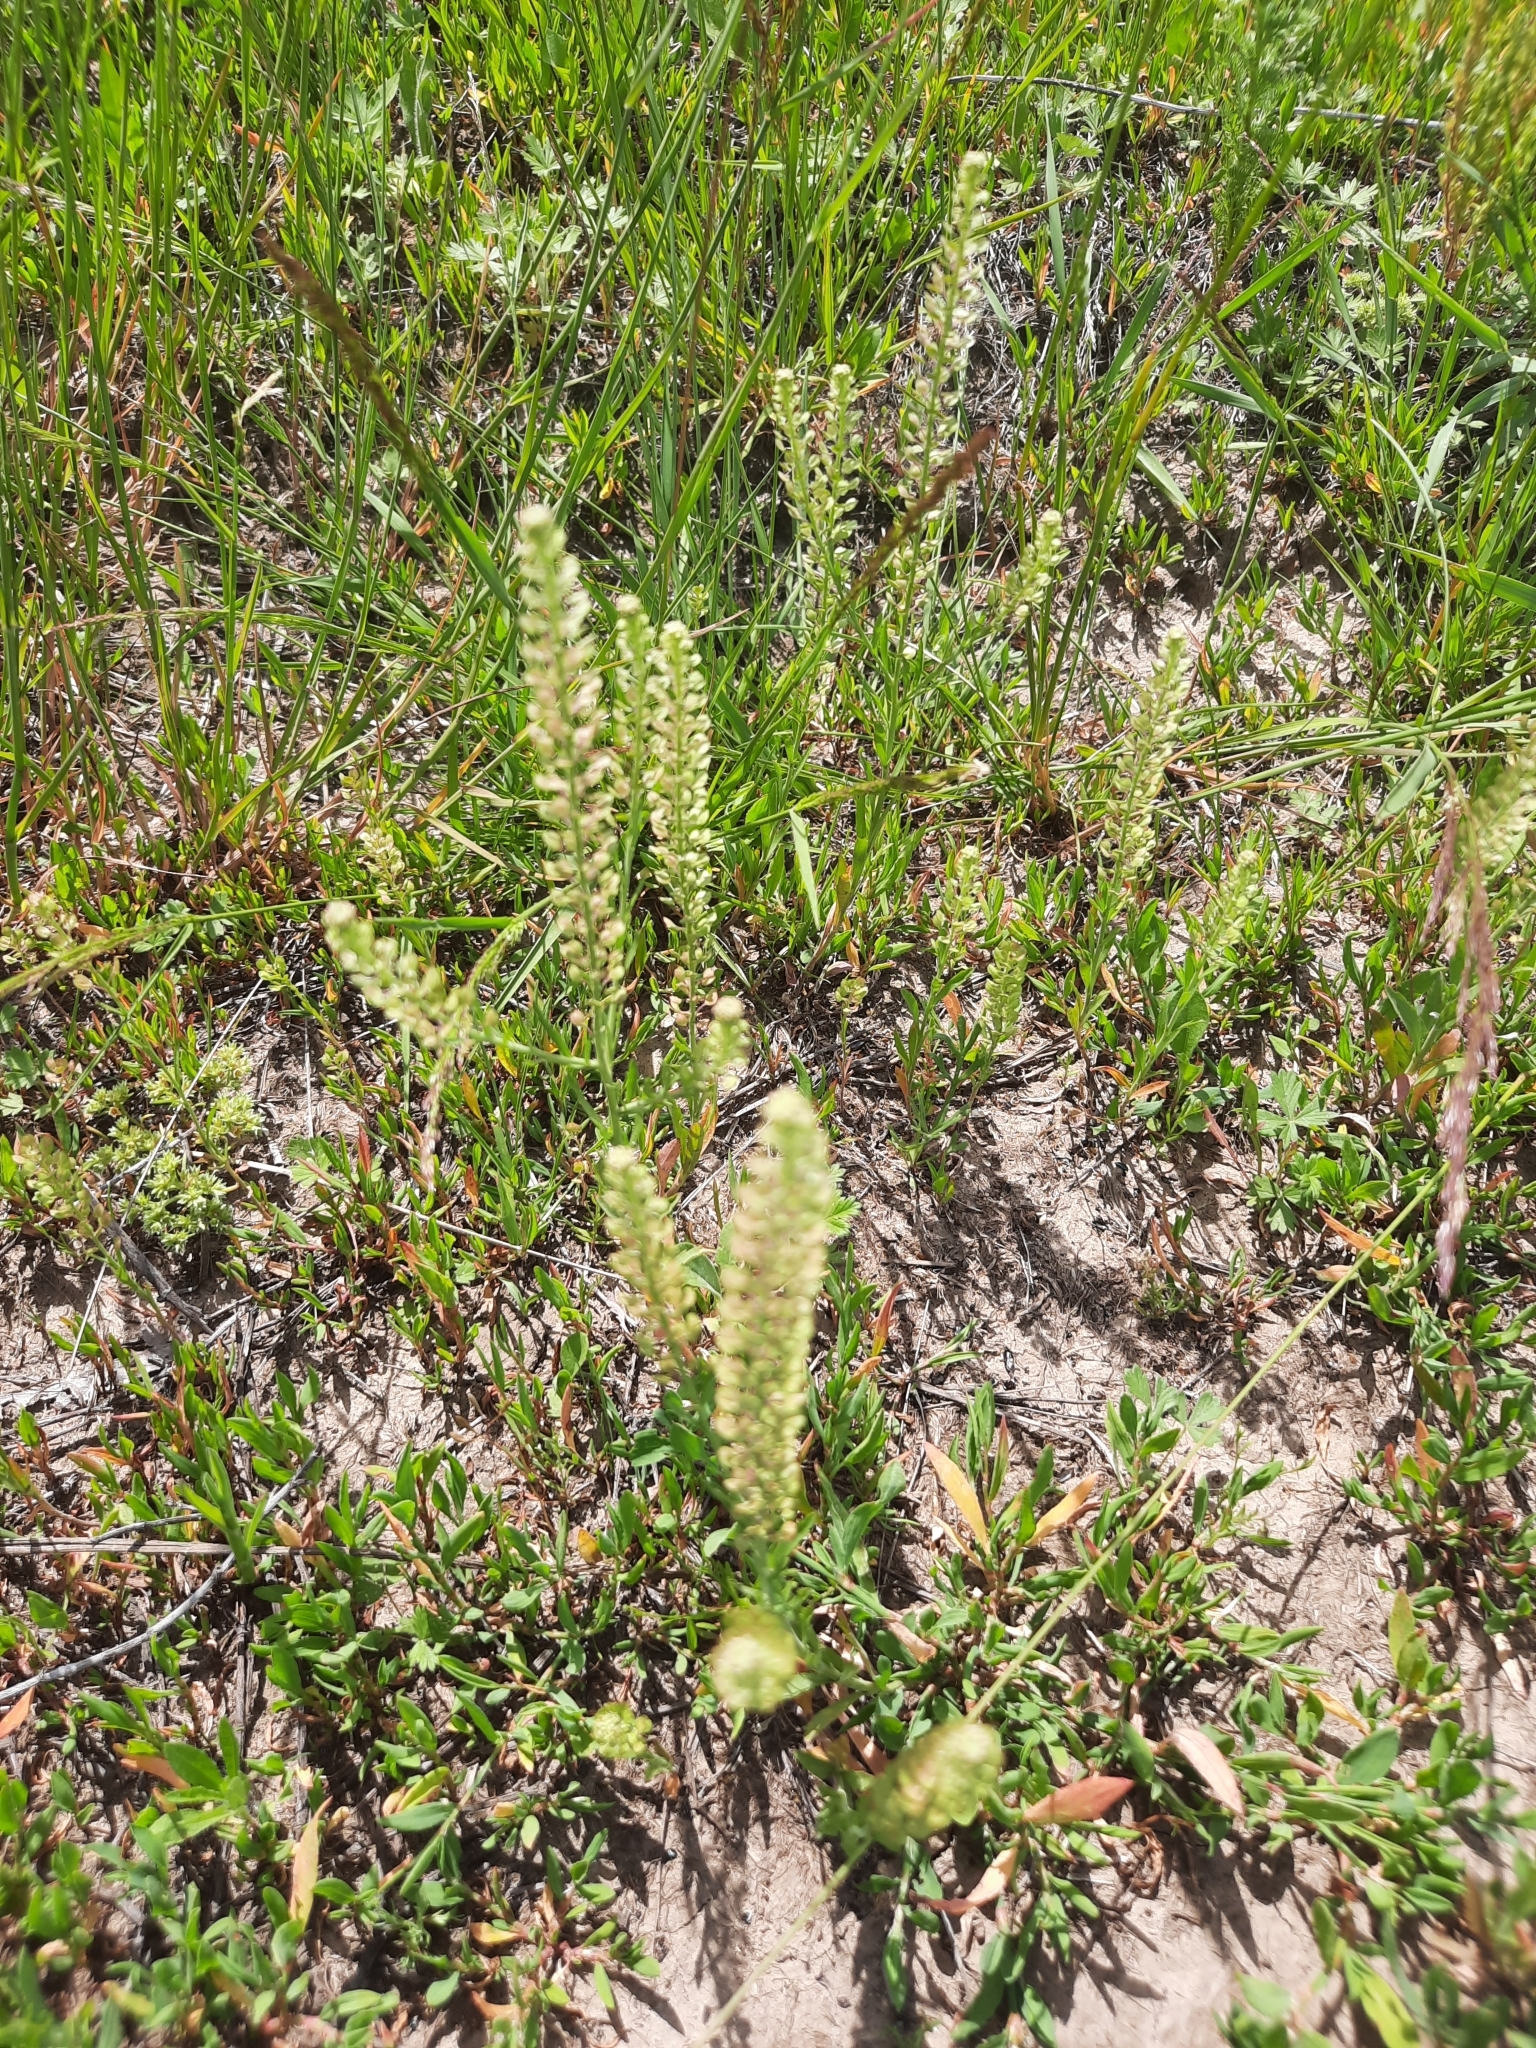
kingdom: Plantae
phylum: Tracheophyta
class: Magnoliopsida
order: Brassicales
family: Brassicaceae
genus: Lepidium
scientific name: Lepidium densiflorum
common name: Miner's pepperwort
